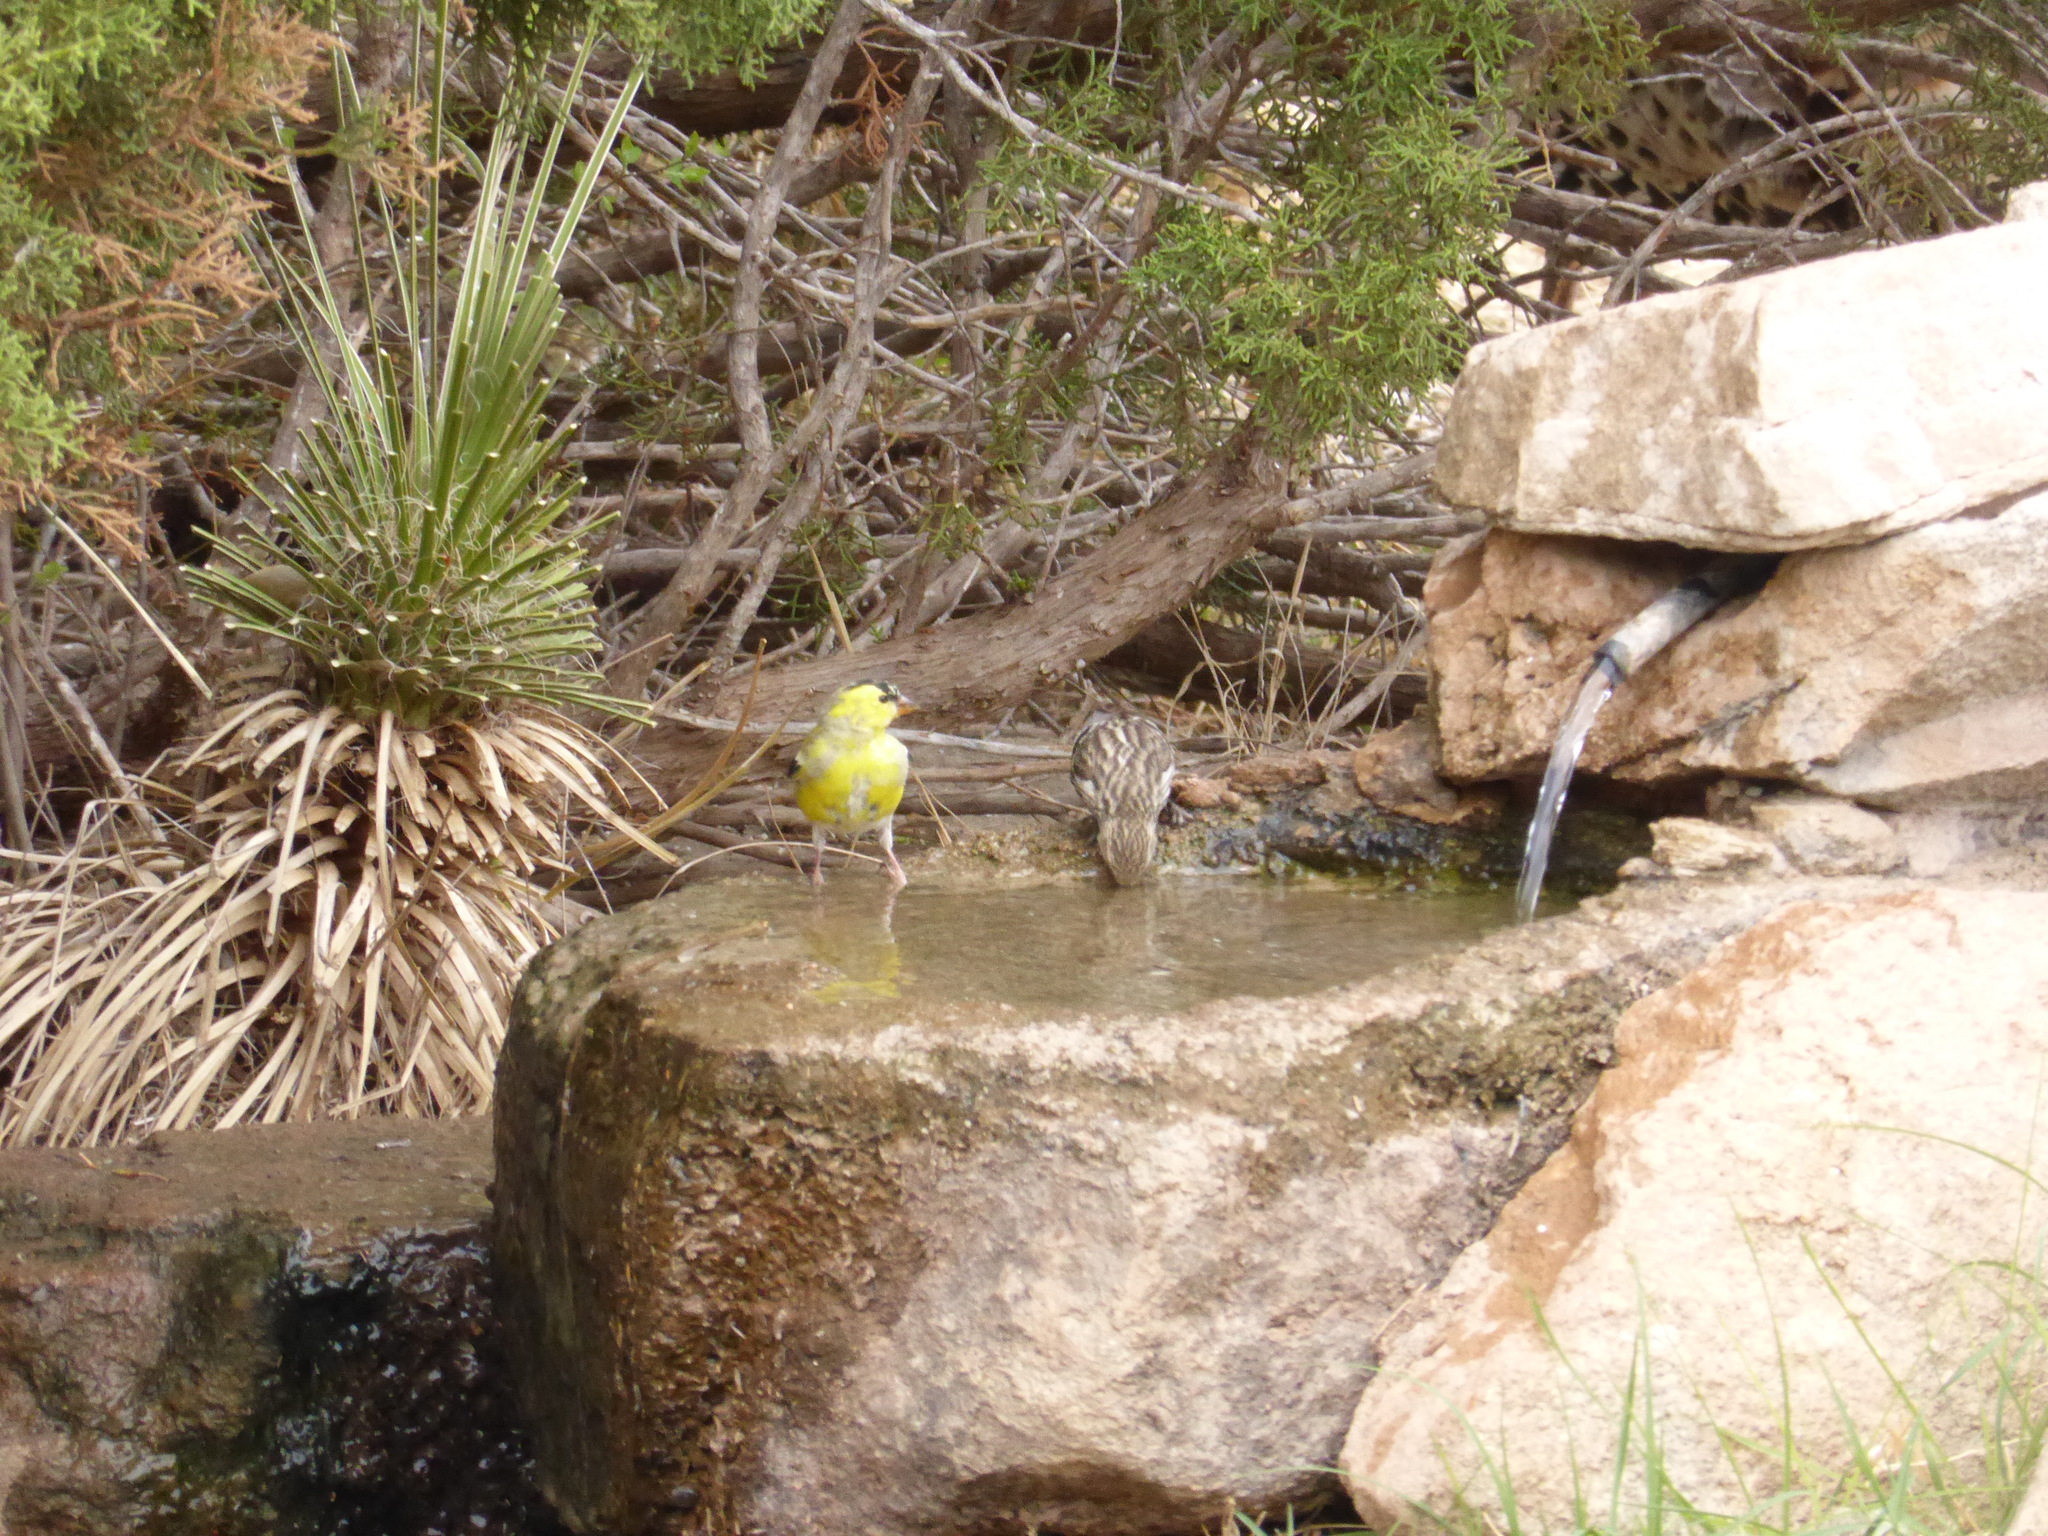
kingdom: Animalia
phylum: Chordata
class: Aves
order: Passeriformes
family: Fringillidae
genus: Spinus
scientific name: Spinus tristis
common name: American goldfinch
